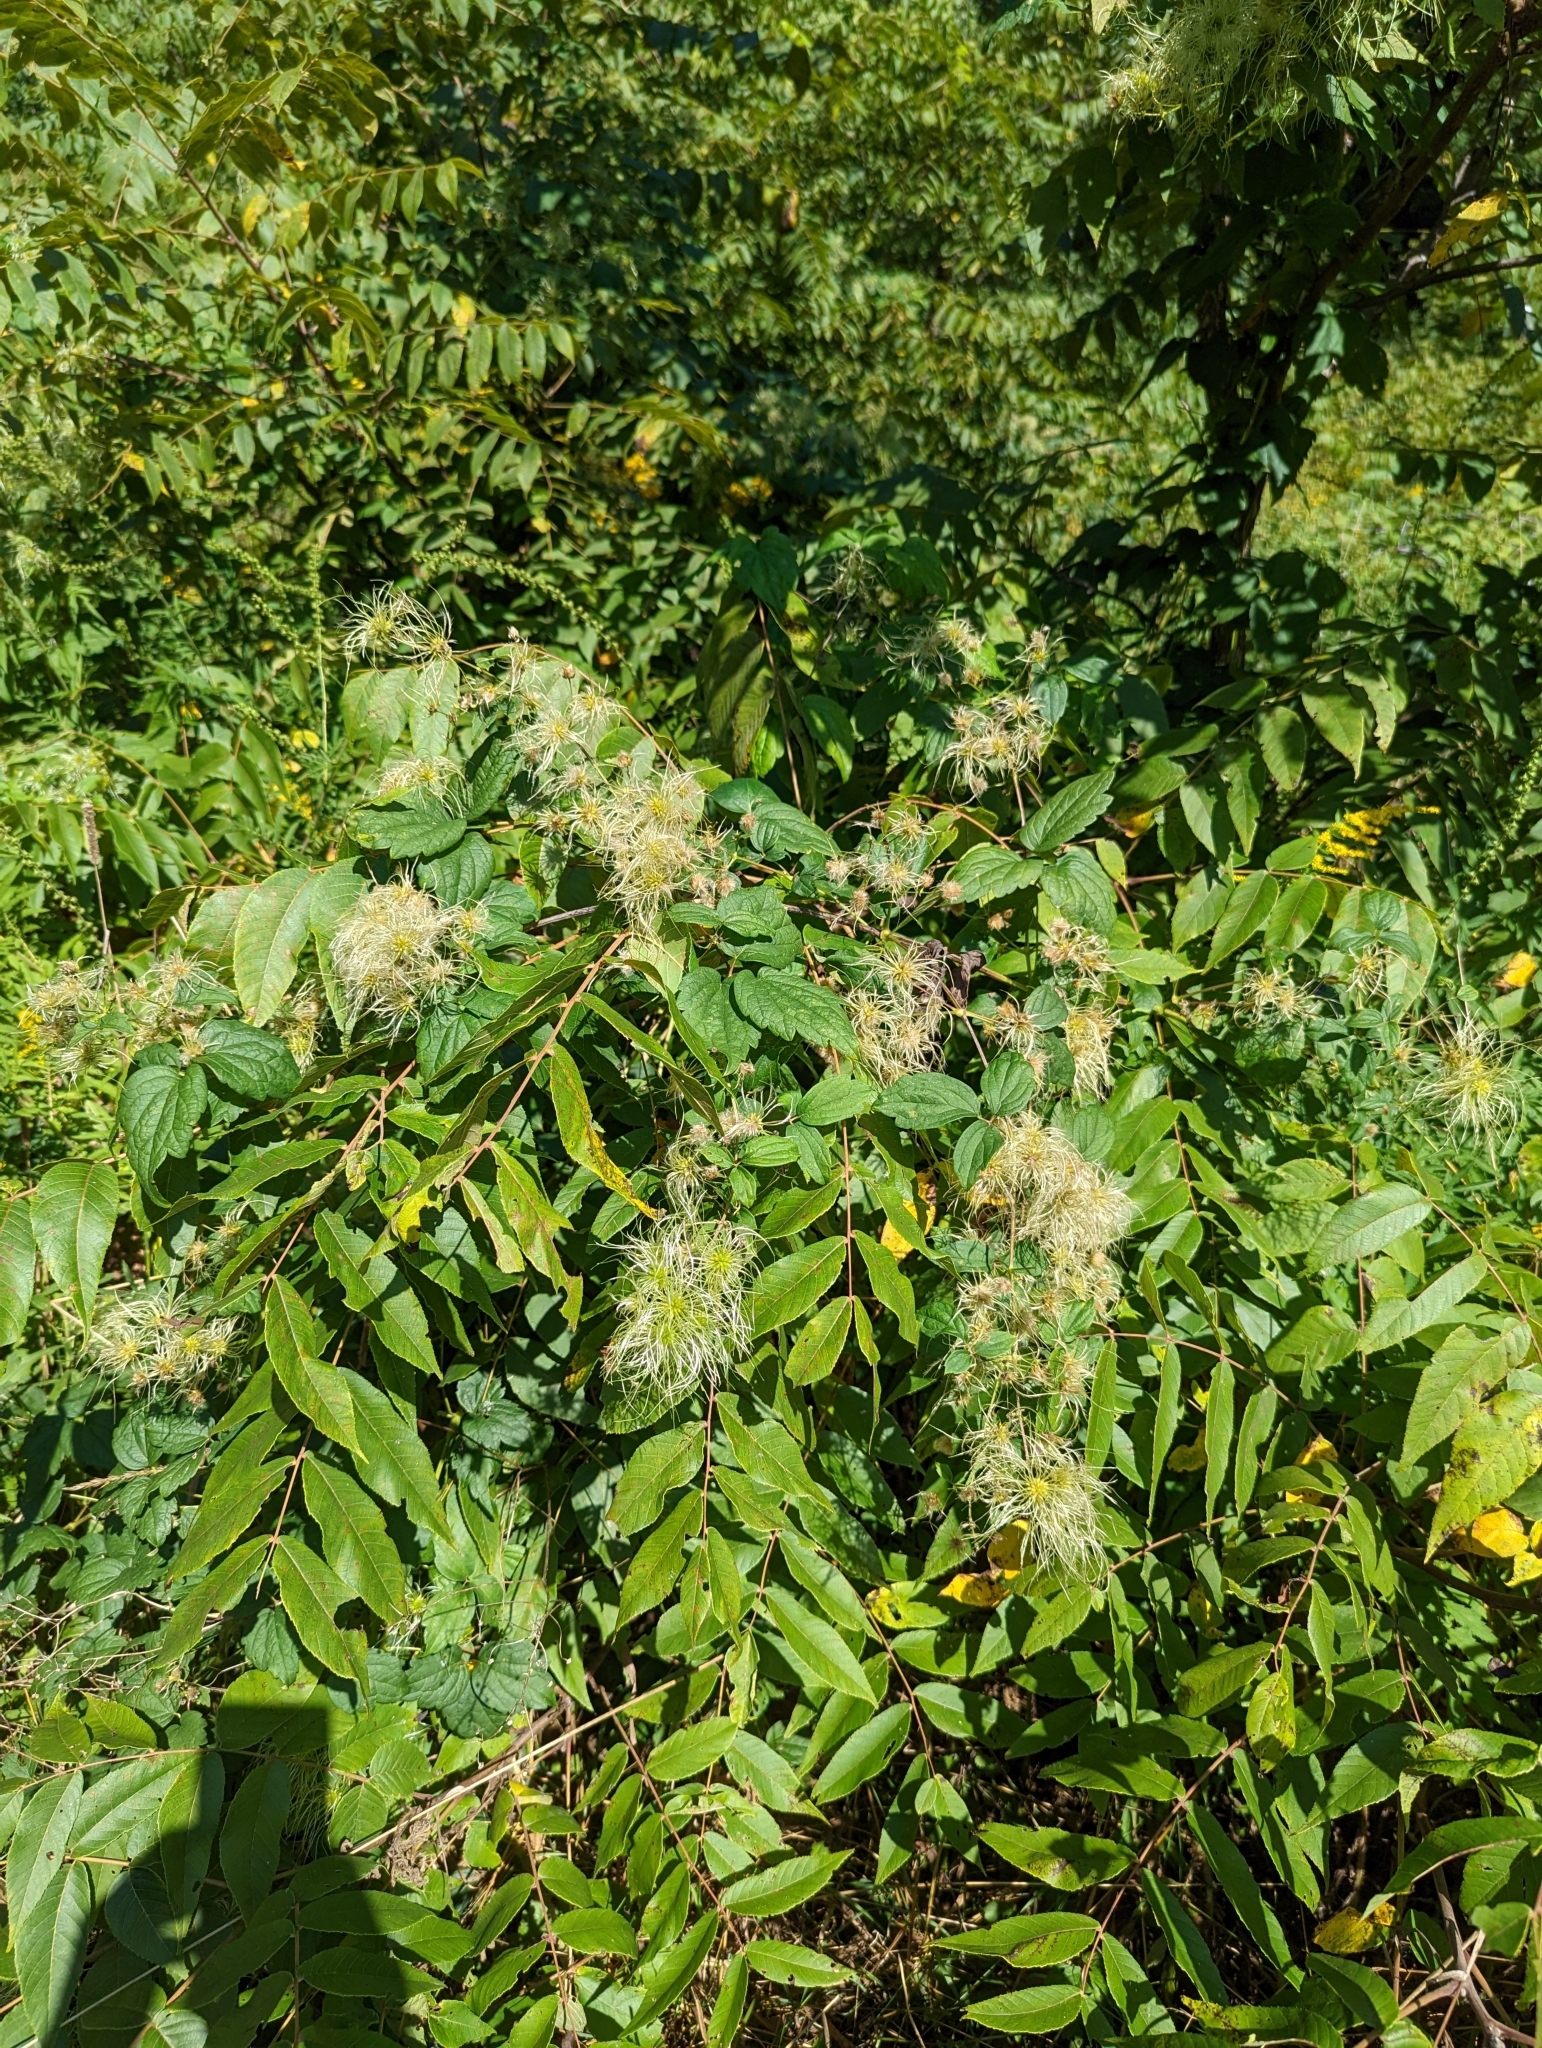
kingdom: Plantae
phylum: Tracheophyta
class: Magnoliopsida
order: Ranunculales
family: Ranunculaceae
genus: Clematis
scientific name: Clematis virginiana
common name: Virgin's-bower
